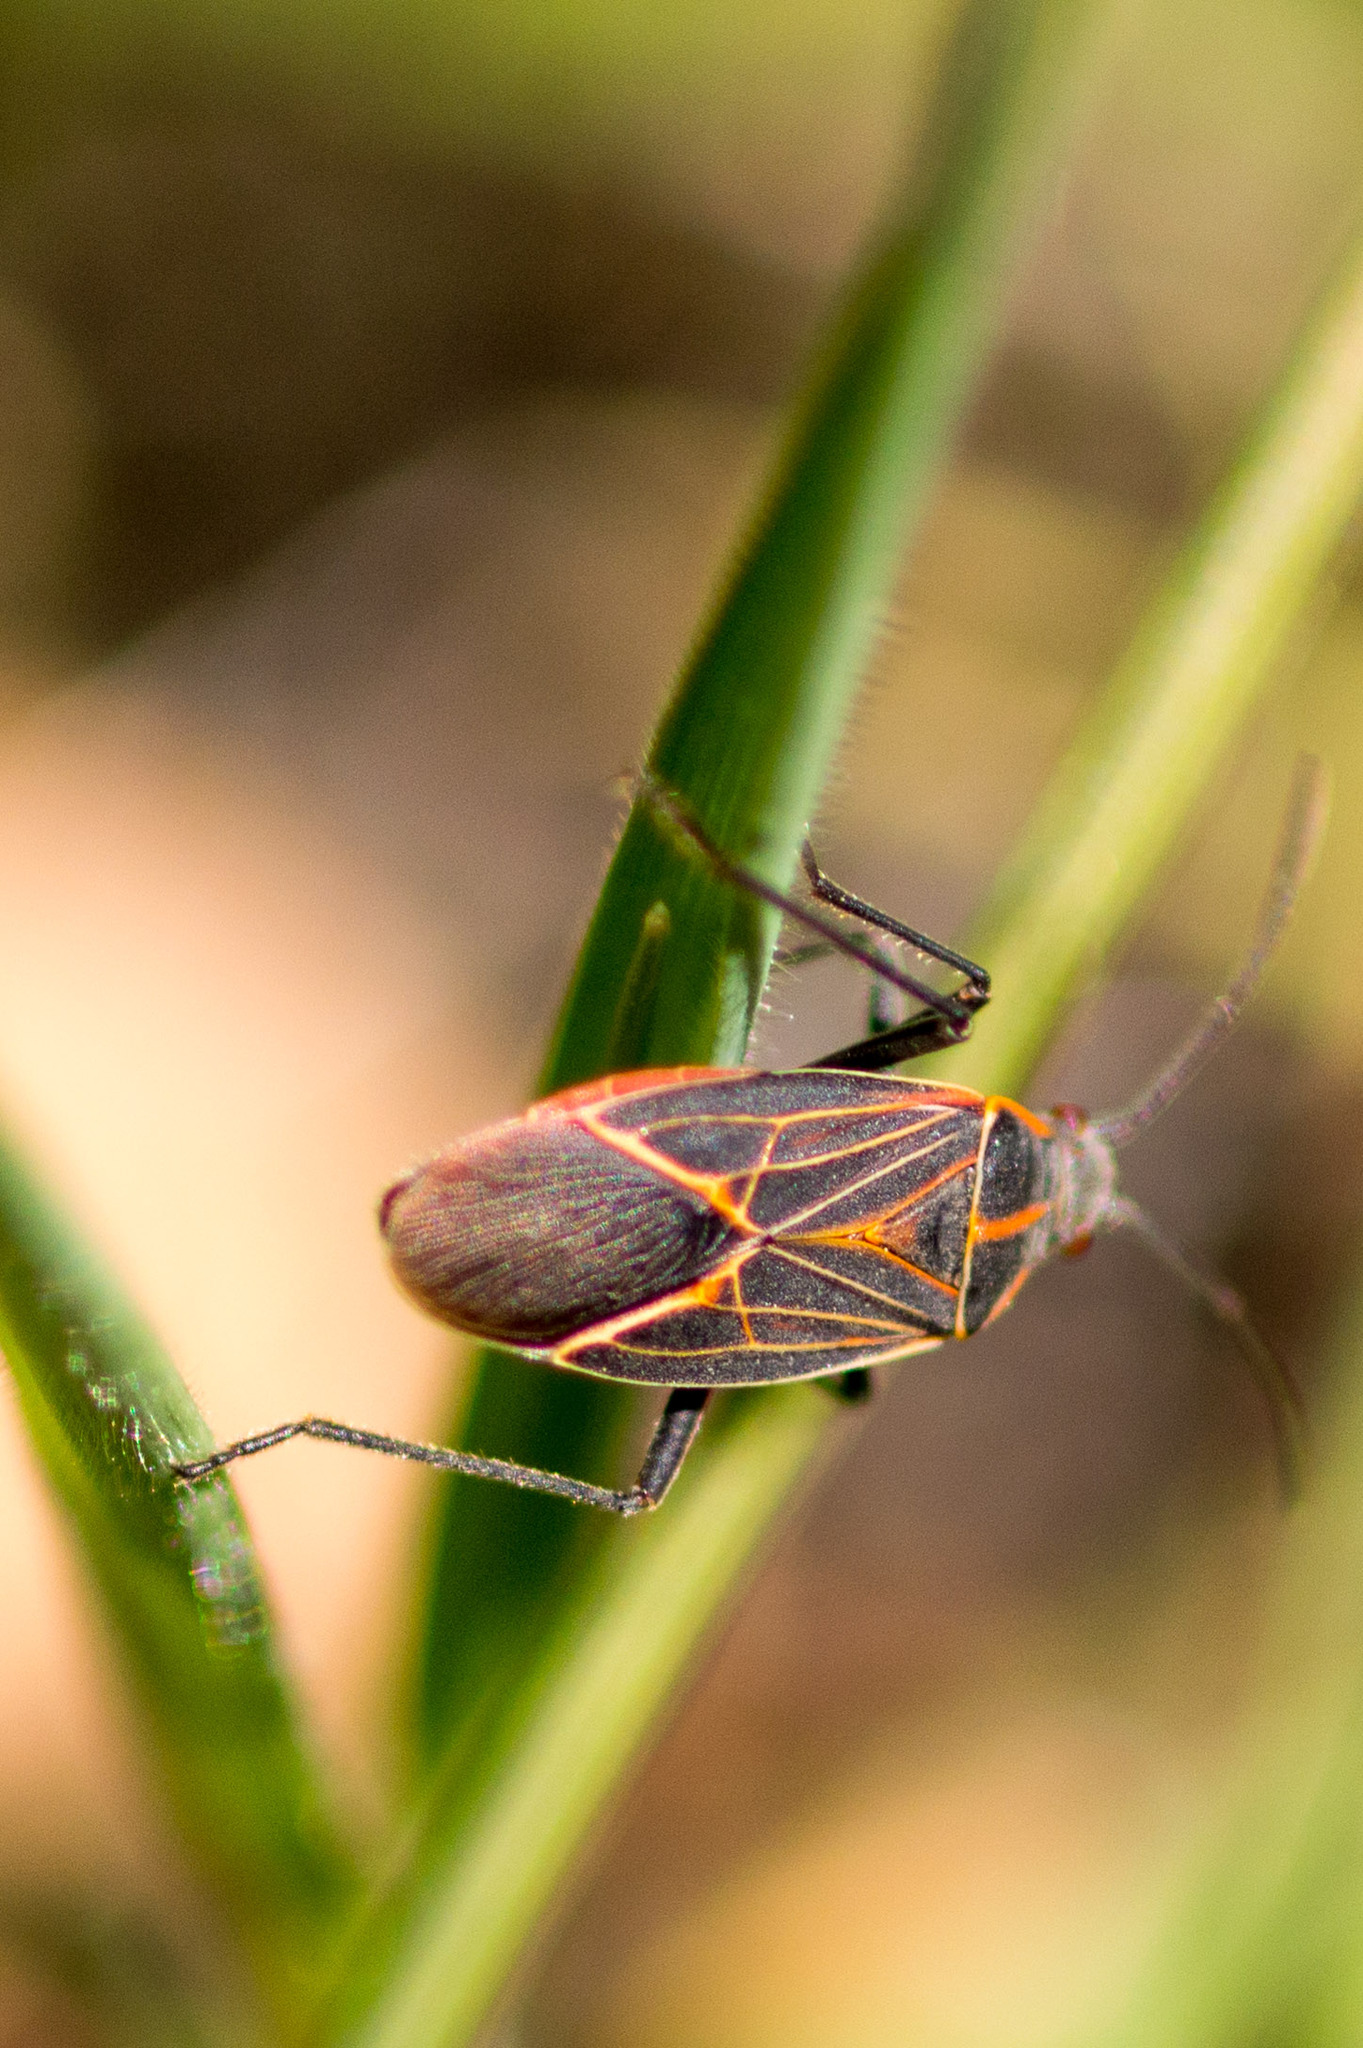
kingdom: Animalia
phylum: Arthropoda
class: Insecta
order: Hemiptera
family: Rhopalidae
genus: Boisea
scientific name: Boisea rubrolineata
